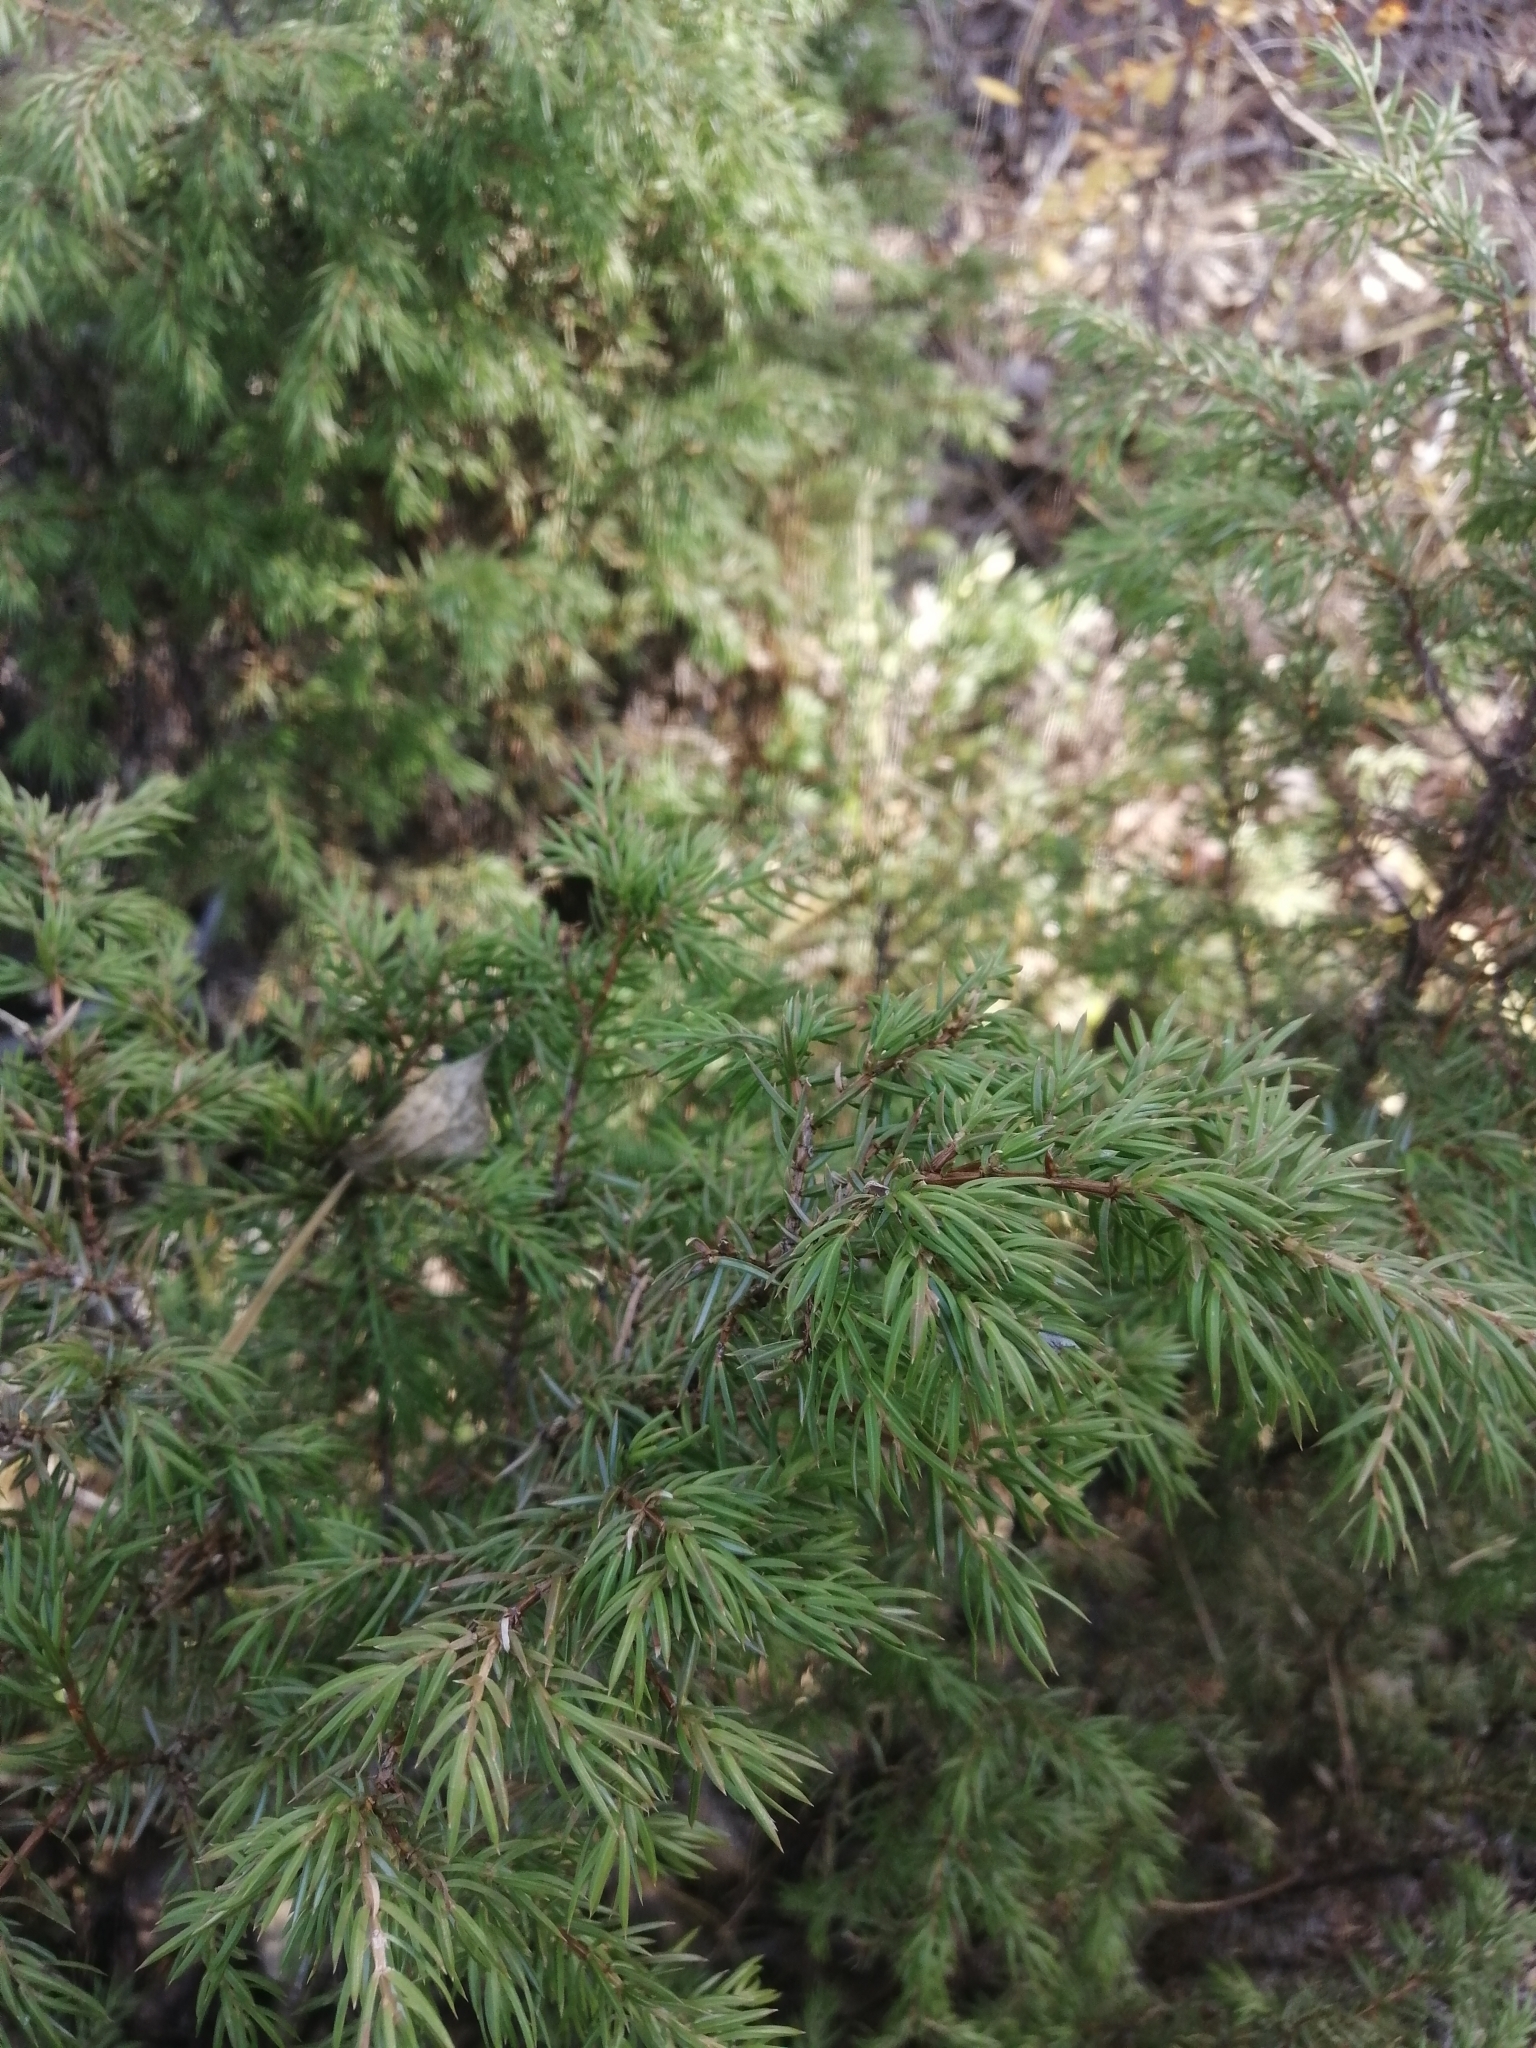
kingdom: Plantae
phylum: Tracheophyta
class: Pinopsida
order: Pinales
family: Cupressaceae
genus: Juniperus
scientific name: Juniperus communis
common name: Common juniper
